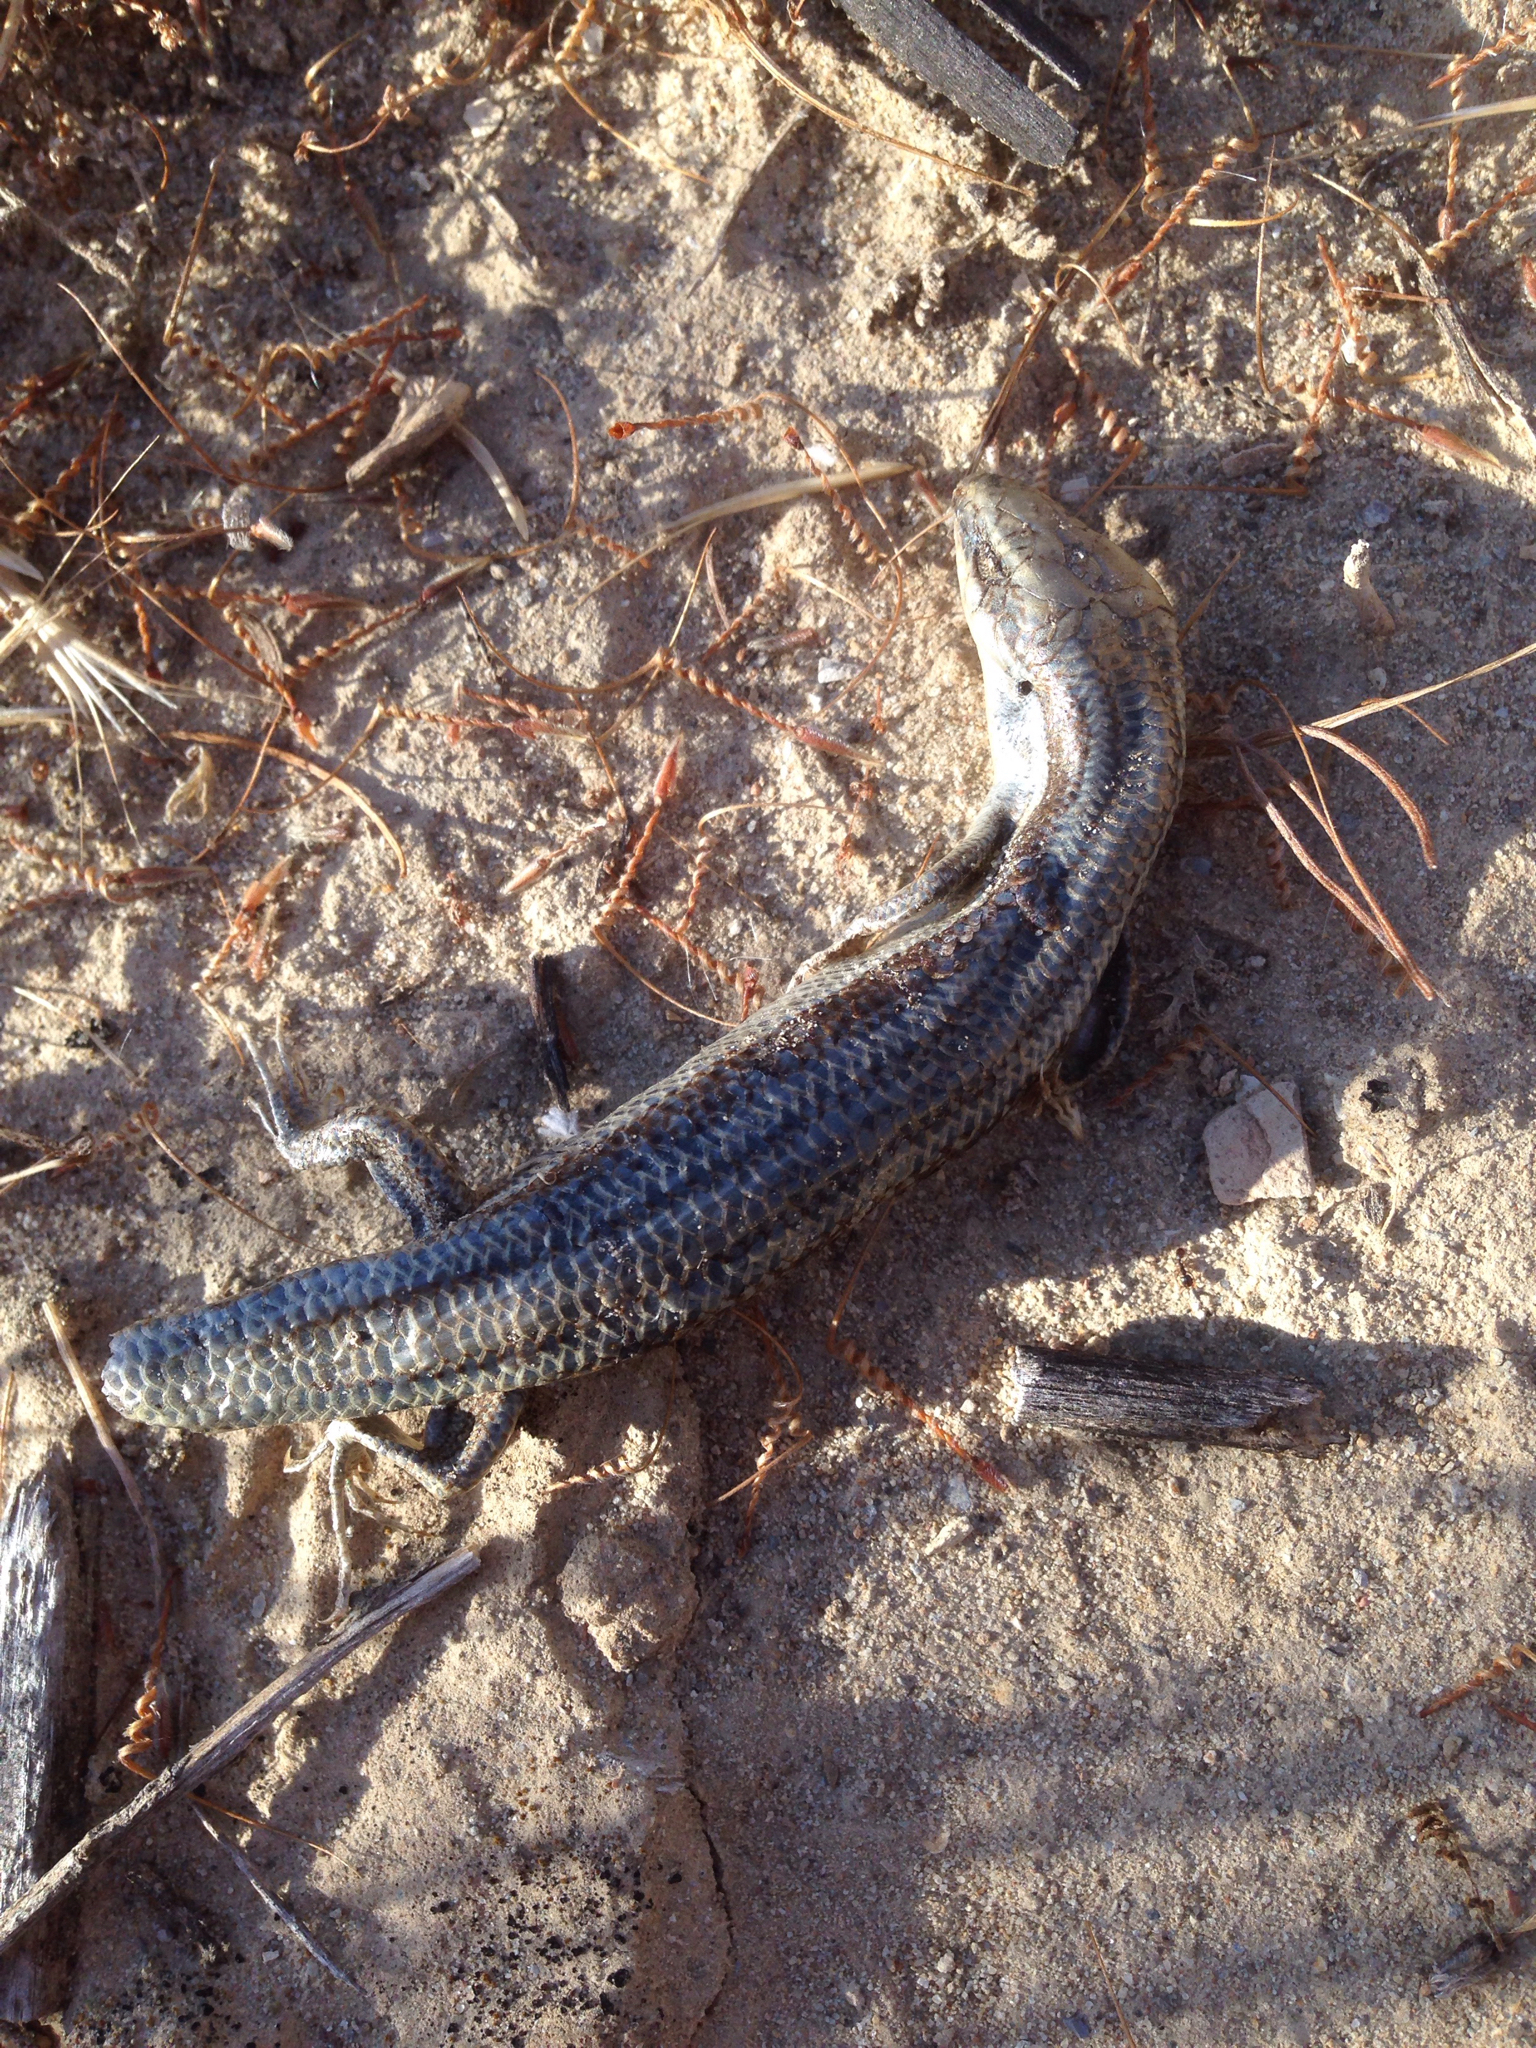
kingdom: Animalia
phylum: Chordata
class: Squamata
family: Scincidae
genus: Plestiodon
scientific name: Plestiodon skiltonianus
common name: Coronado island skink [interparietalis]
